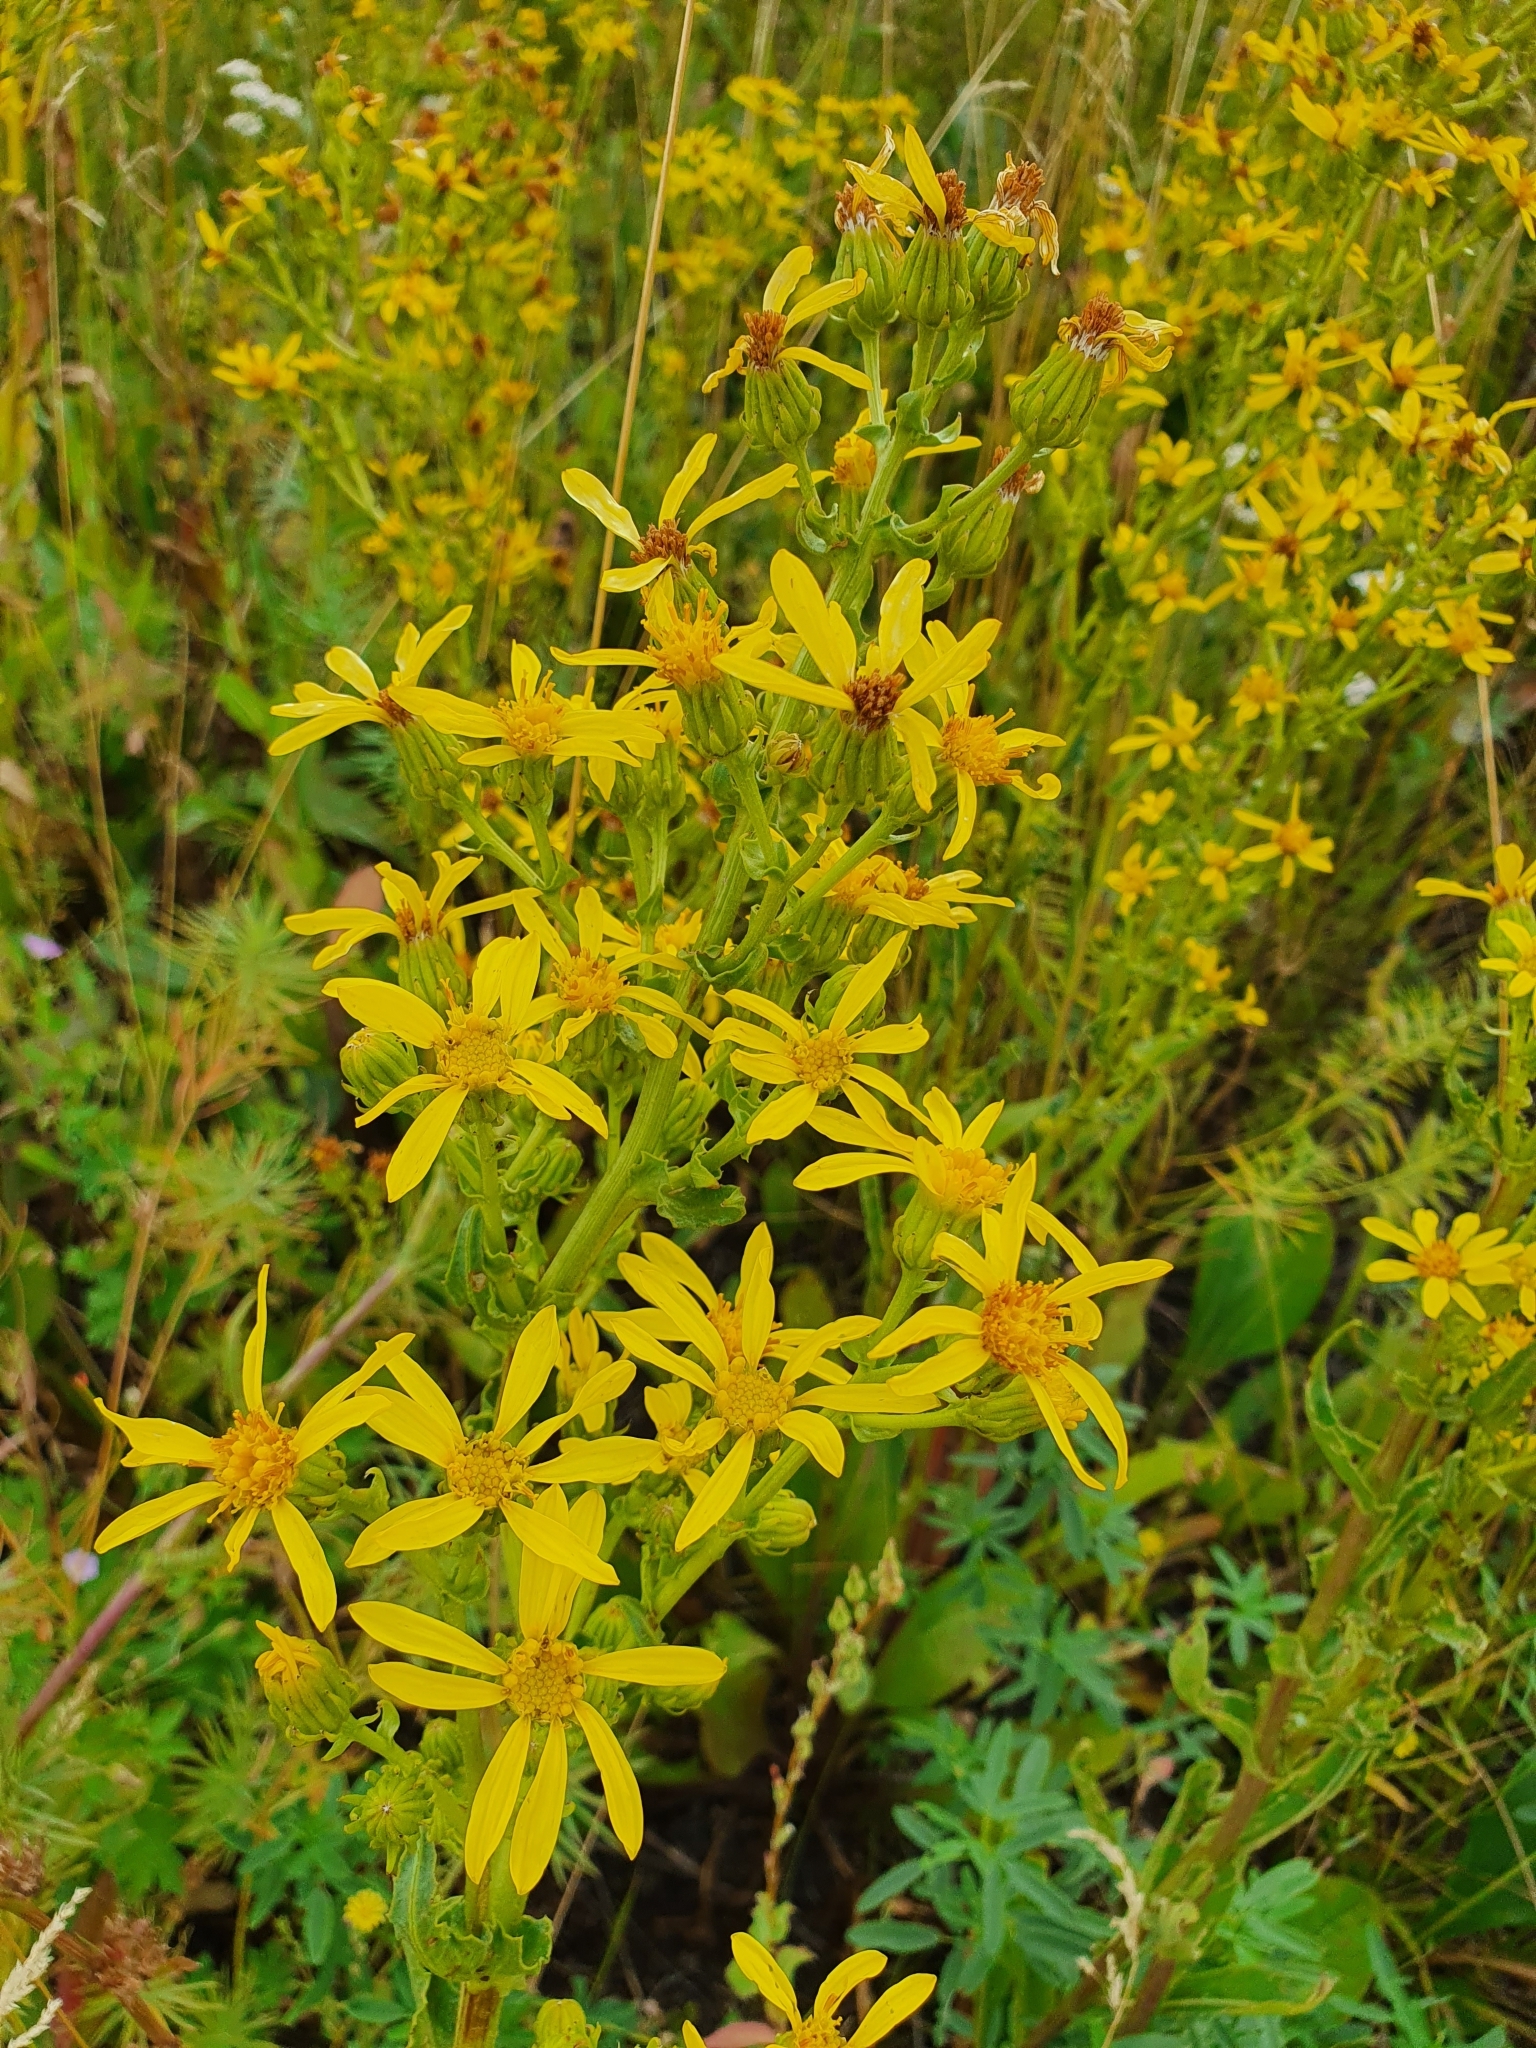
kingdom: Plantae
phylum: Tracheophyta
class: Magnoliopsida
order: Asterales
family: Asteraceae
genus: Jacobaea
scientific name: Jacobaea erucifolia
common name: Hoary ragwort
